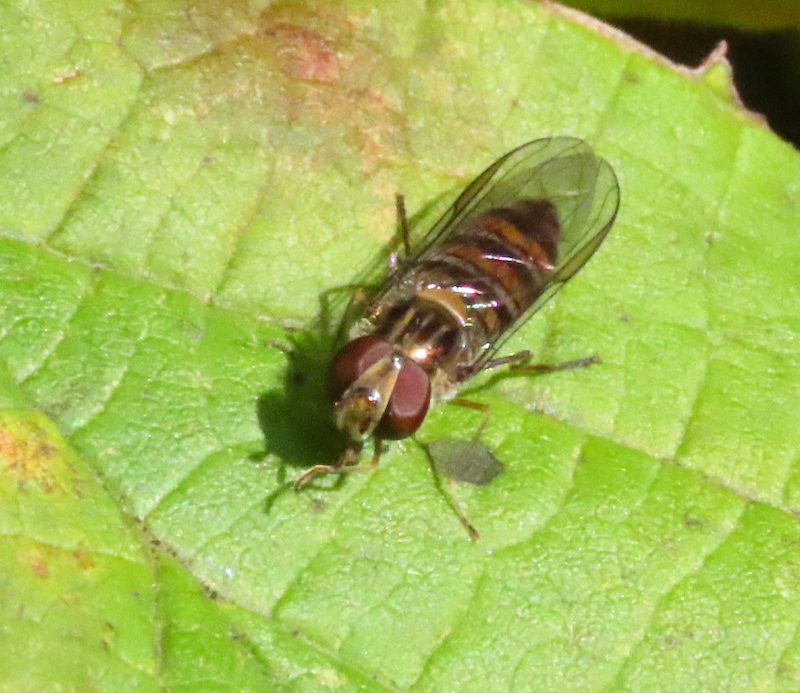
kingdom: Animalia
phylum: Arthropoda
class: Insecta
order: Diptera
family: Syrphidae
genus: Episyrphus
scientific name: Episyrphus balteatus
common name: Marmalade hoverfly
